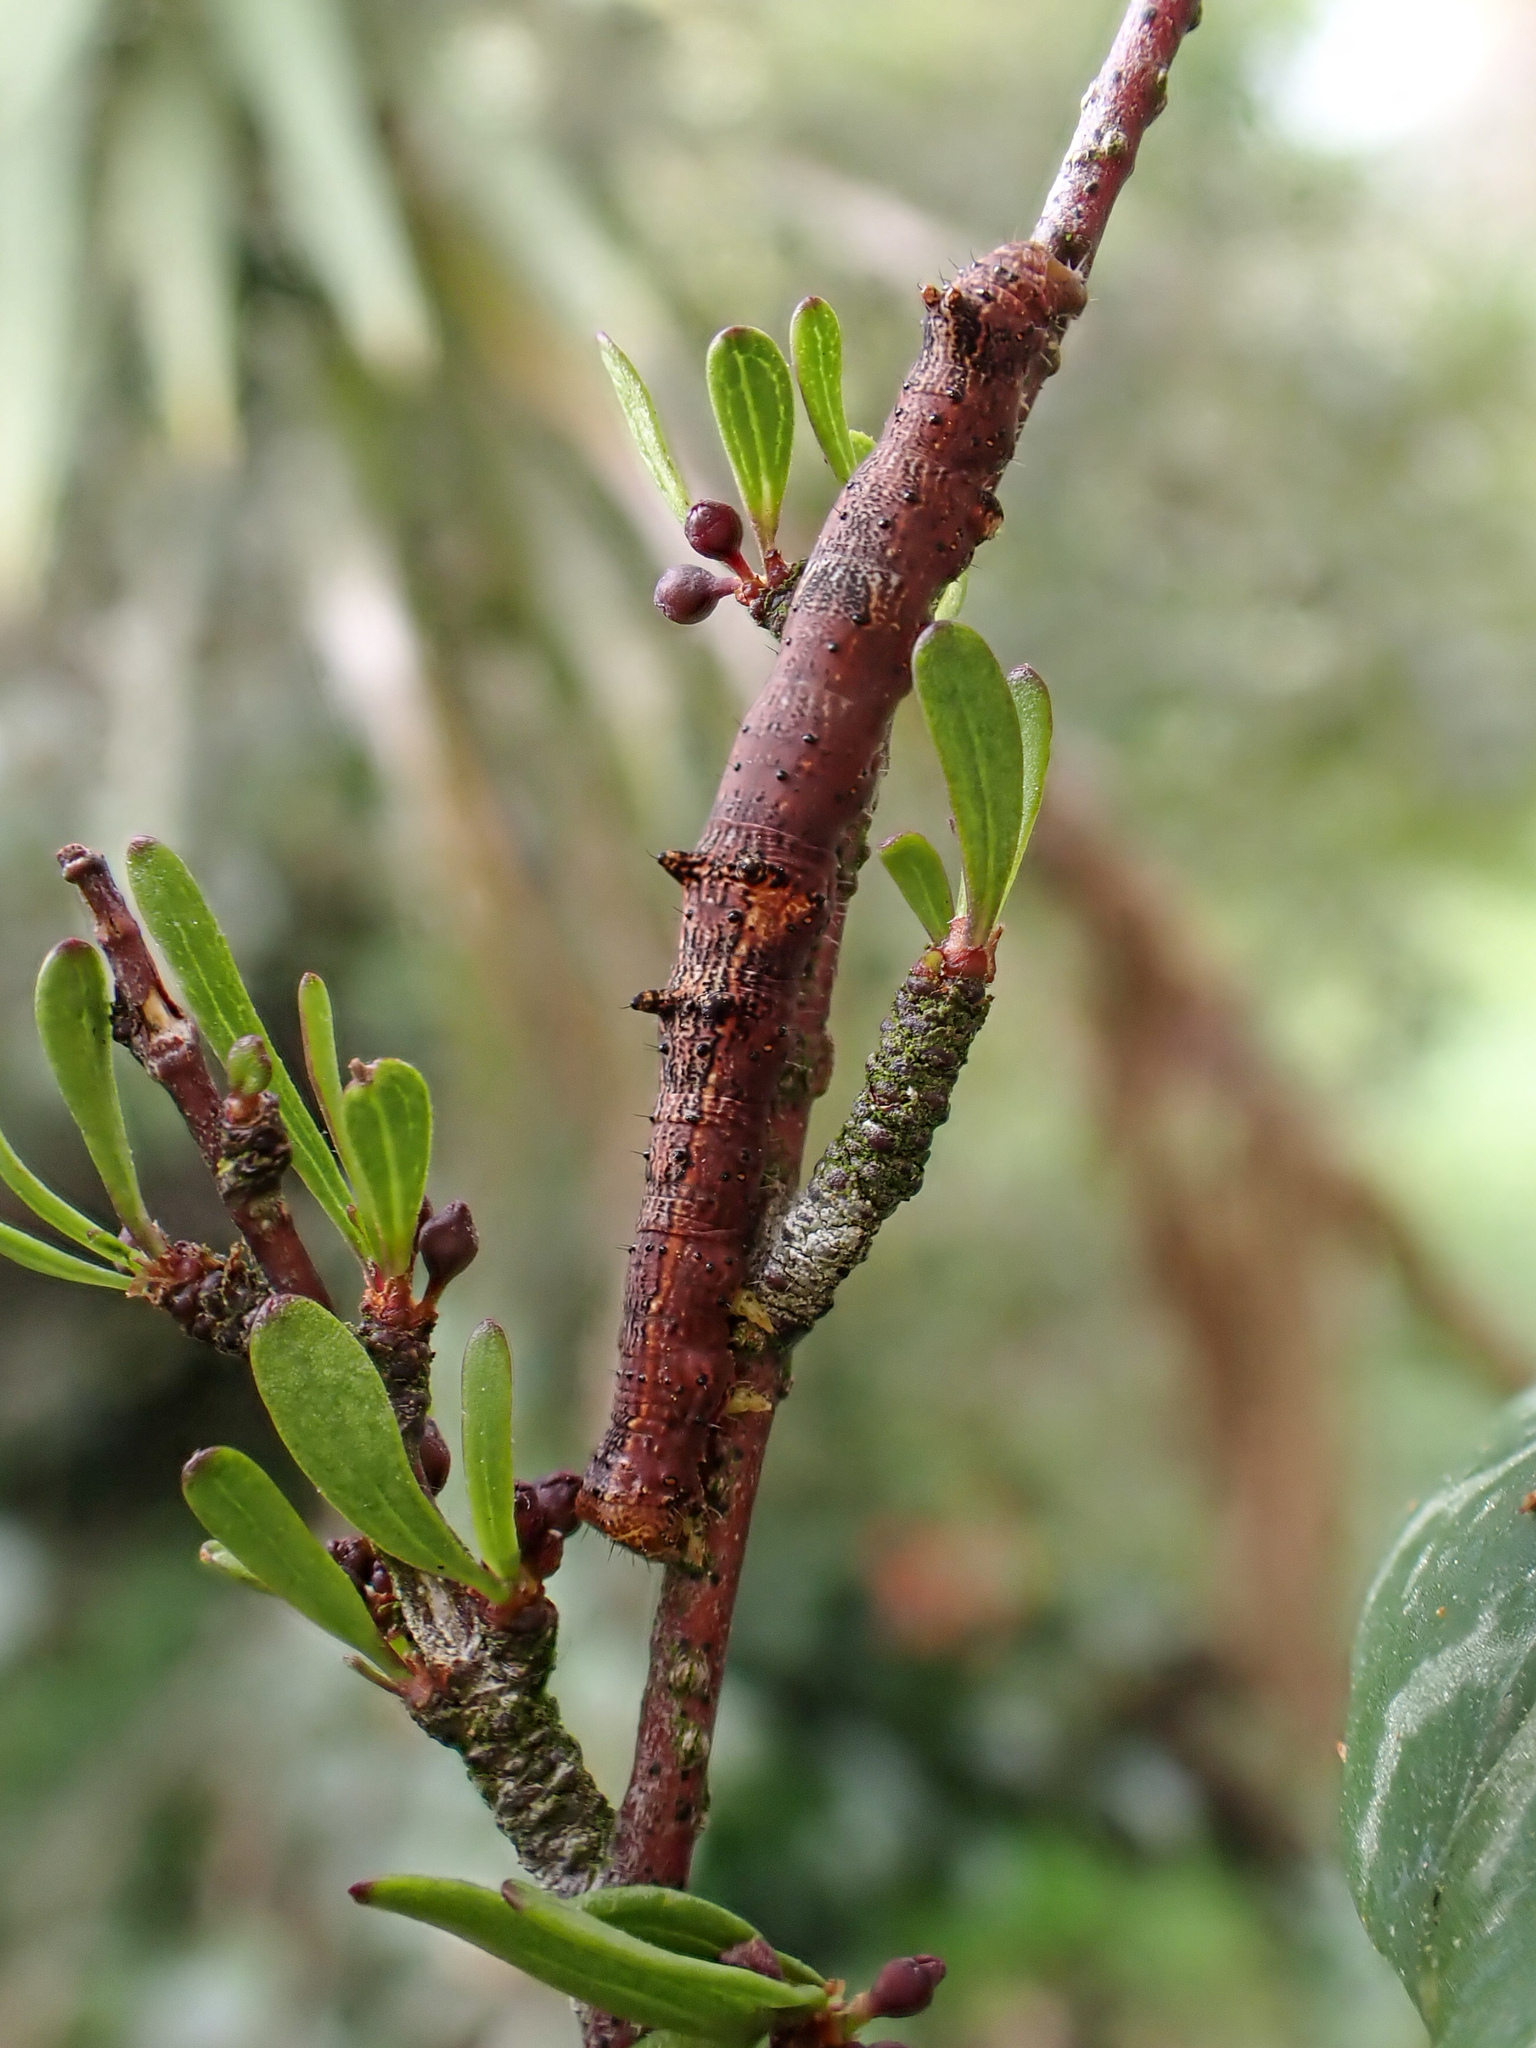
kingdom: Animalia
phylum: Arthropoda
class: Insecta
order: Lepidoptera
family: Geometridae
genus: Declana
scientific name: Declana niveata
